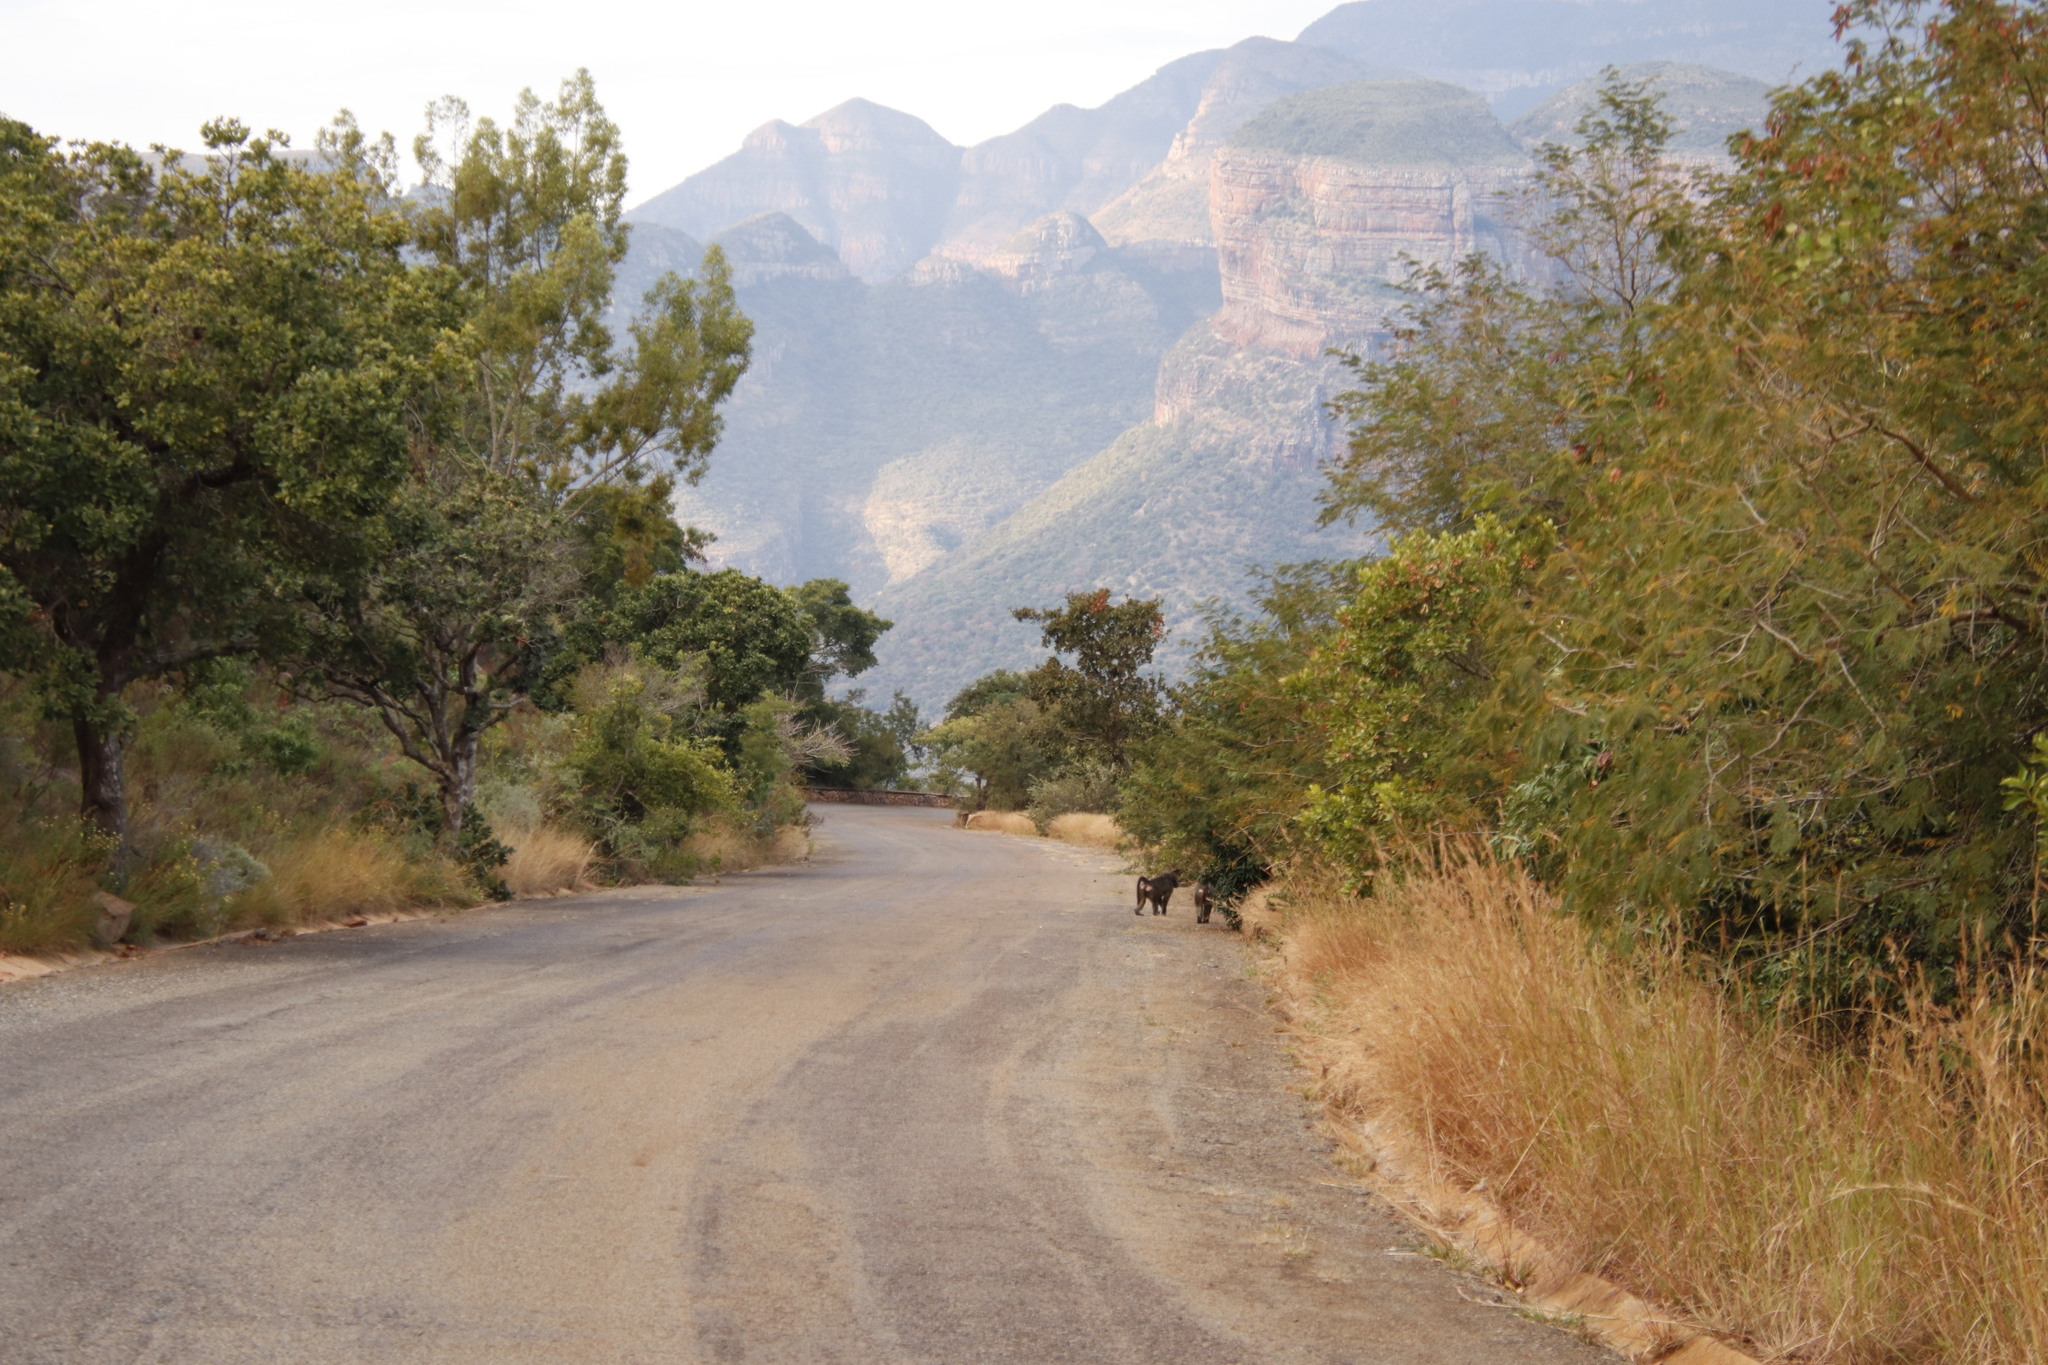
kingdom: Animalia
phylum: Chordata
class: Mammalia
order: Primates
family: Cercopithecidae
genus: Papio
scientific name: Papio ursinus
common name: Chacma baboon
